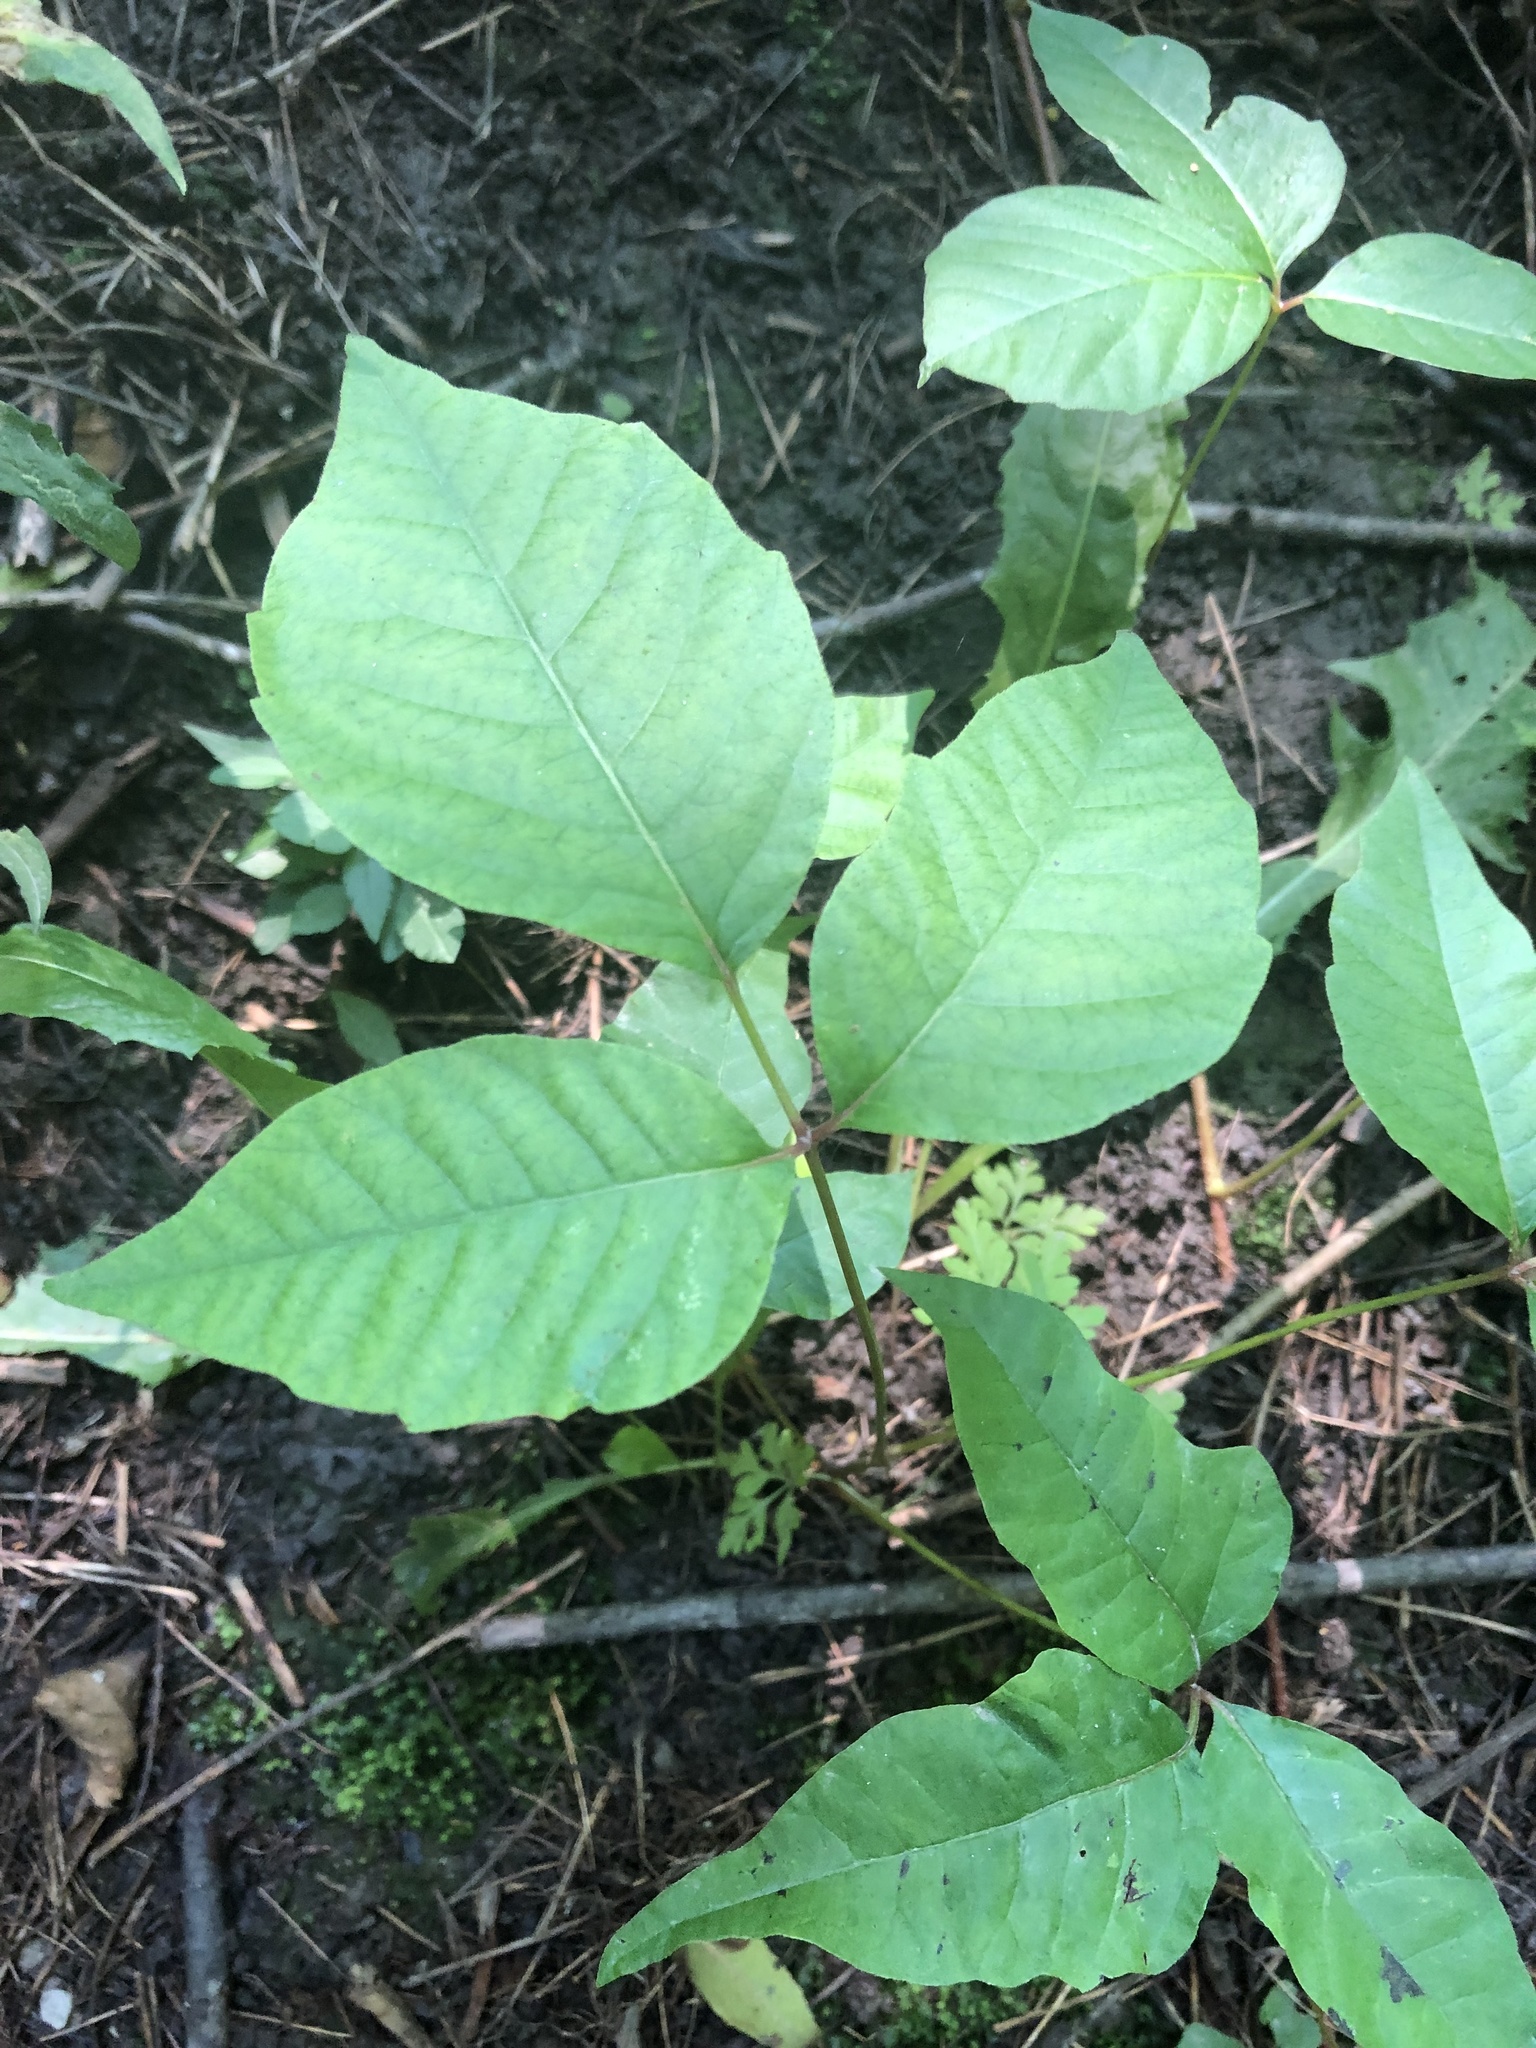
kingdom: Plantae
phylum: Tracheophyta
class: Magnoliopsida
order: Sapindales
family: Anacardiaceae
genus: Toxicodendron
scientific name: Toxicodendron rydbergii
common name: Rydberg's poison-ivy
